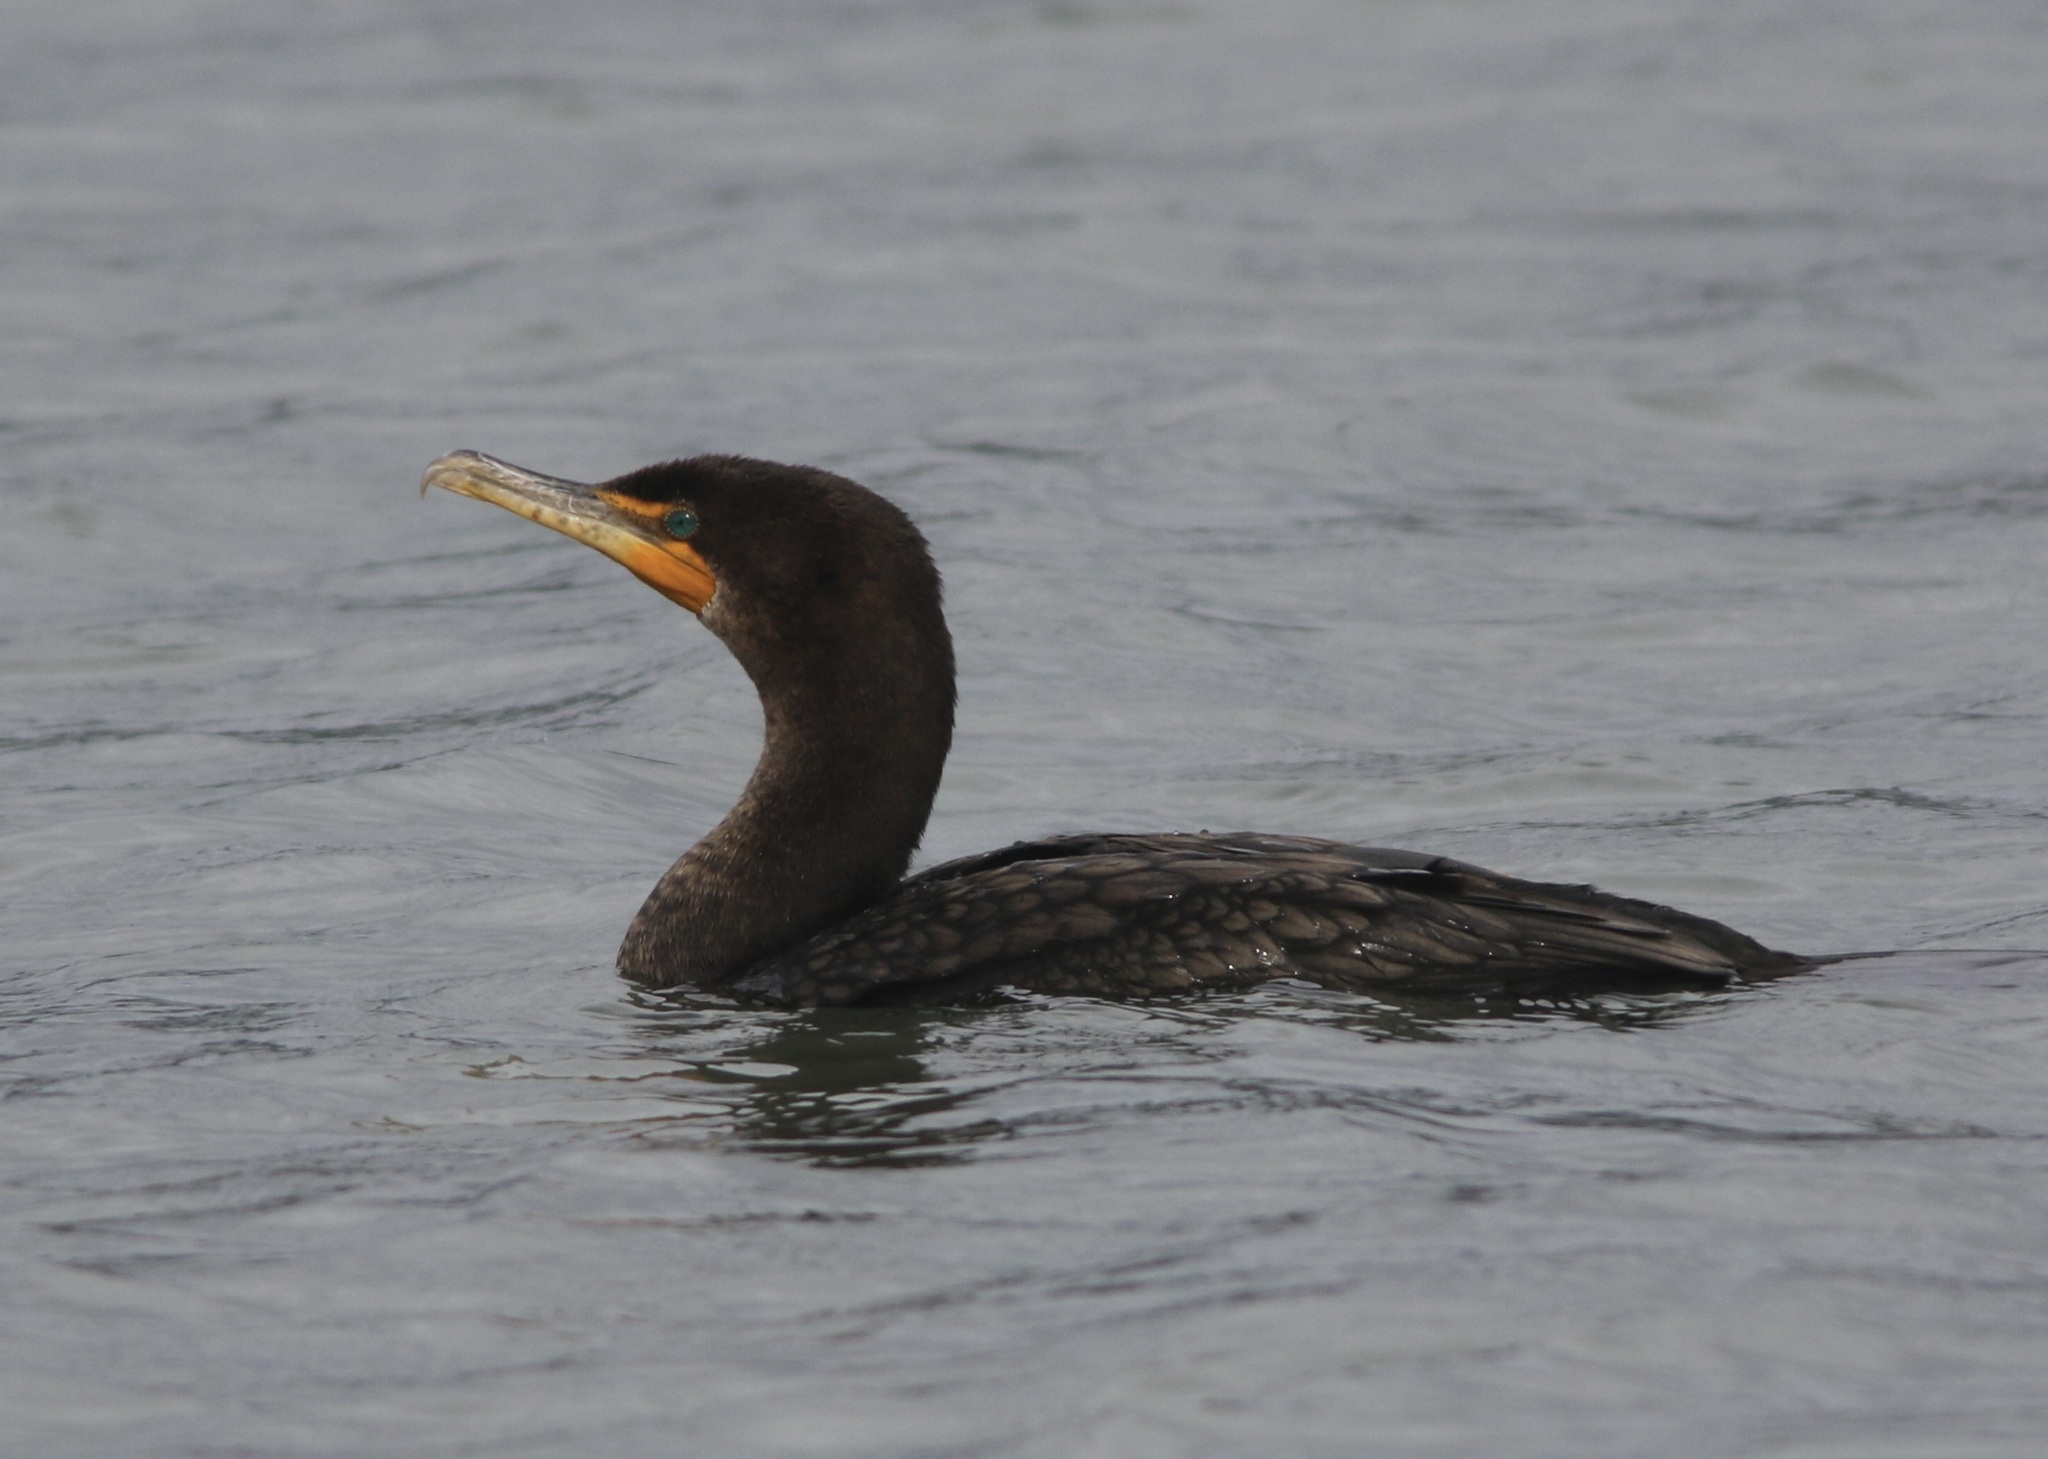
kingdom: Animalia
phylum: Chordata
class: Aves
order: Suliformes
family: Phalacrocoracidae
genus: Phalacrocorax
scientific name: Phalacrocorax auritus
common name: Double-crested cormorant
